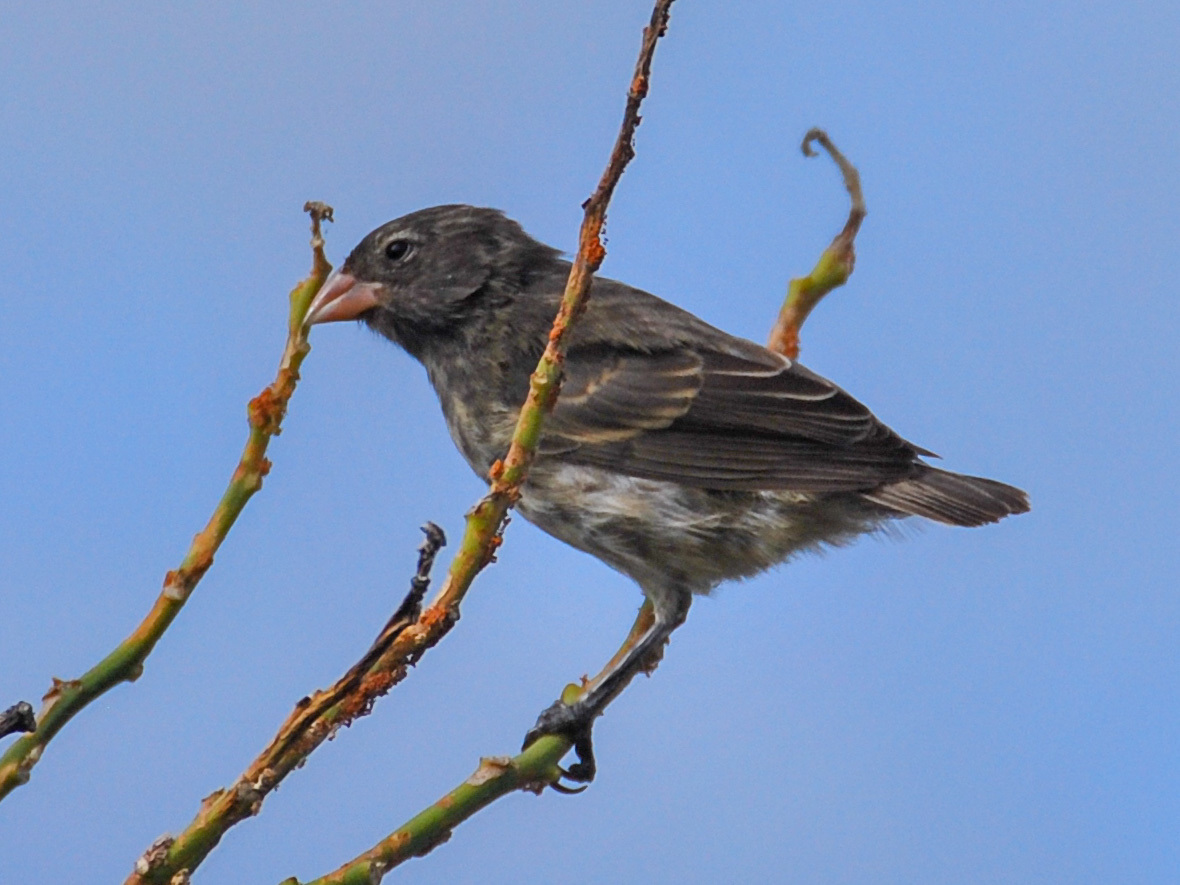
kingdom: Animalia
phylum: Chordata
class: Aves
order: Passeriformes
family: Thraupidae
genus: Geospiza
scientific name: Geospiza fuliginosa
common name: Small ground finch
